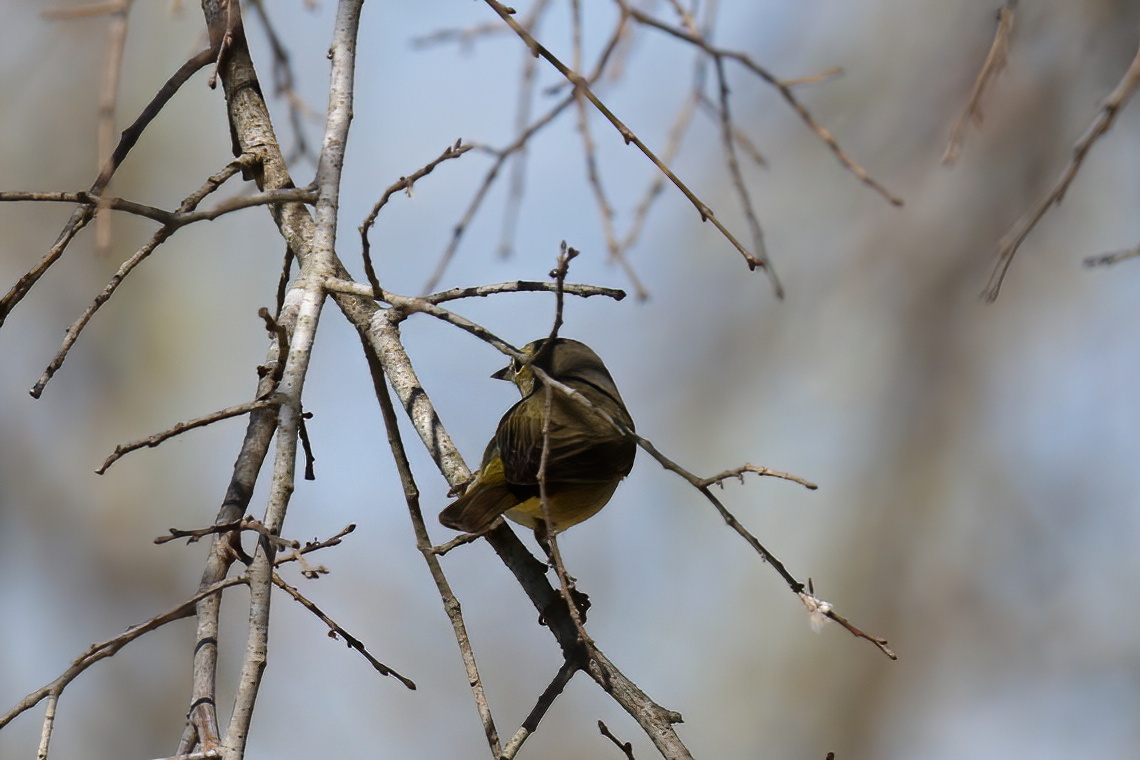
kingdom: Animalia
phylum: Chordata
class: Aves
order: Passeriformes
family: Parulidae
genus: Leiothlypis
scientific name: Leiothlypis celata
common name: Orange-crowned warbler
